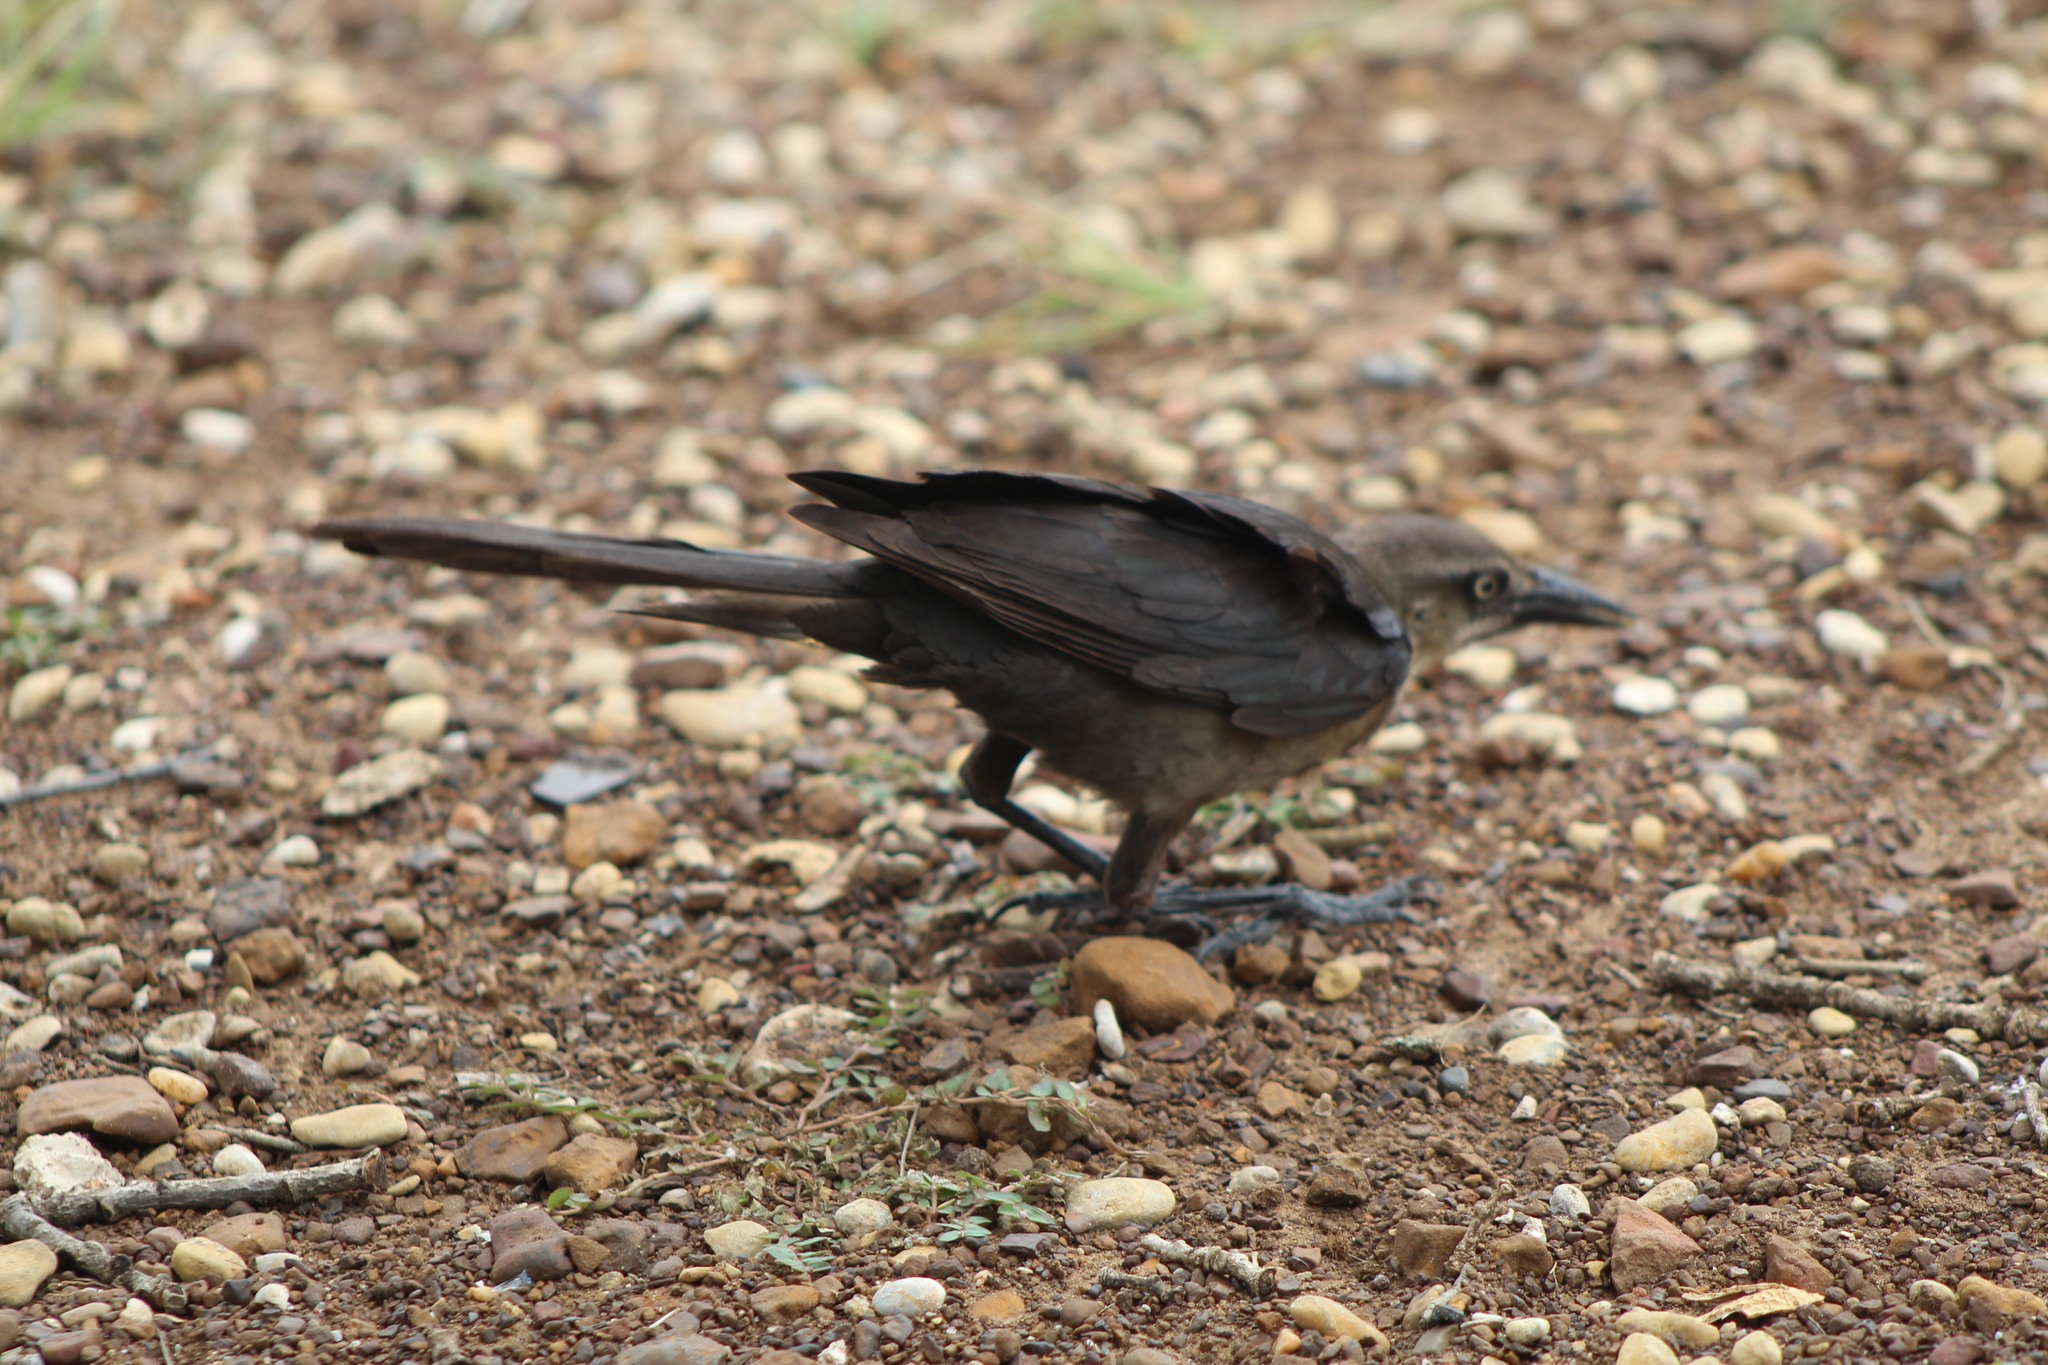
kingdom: Animalia
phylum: Chordata
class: Aves
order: Passeriformes
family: Icteridae
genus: Quiscalus
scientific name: Quiscalus mexicanus
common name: Great-tailed grackle
